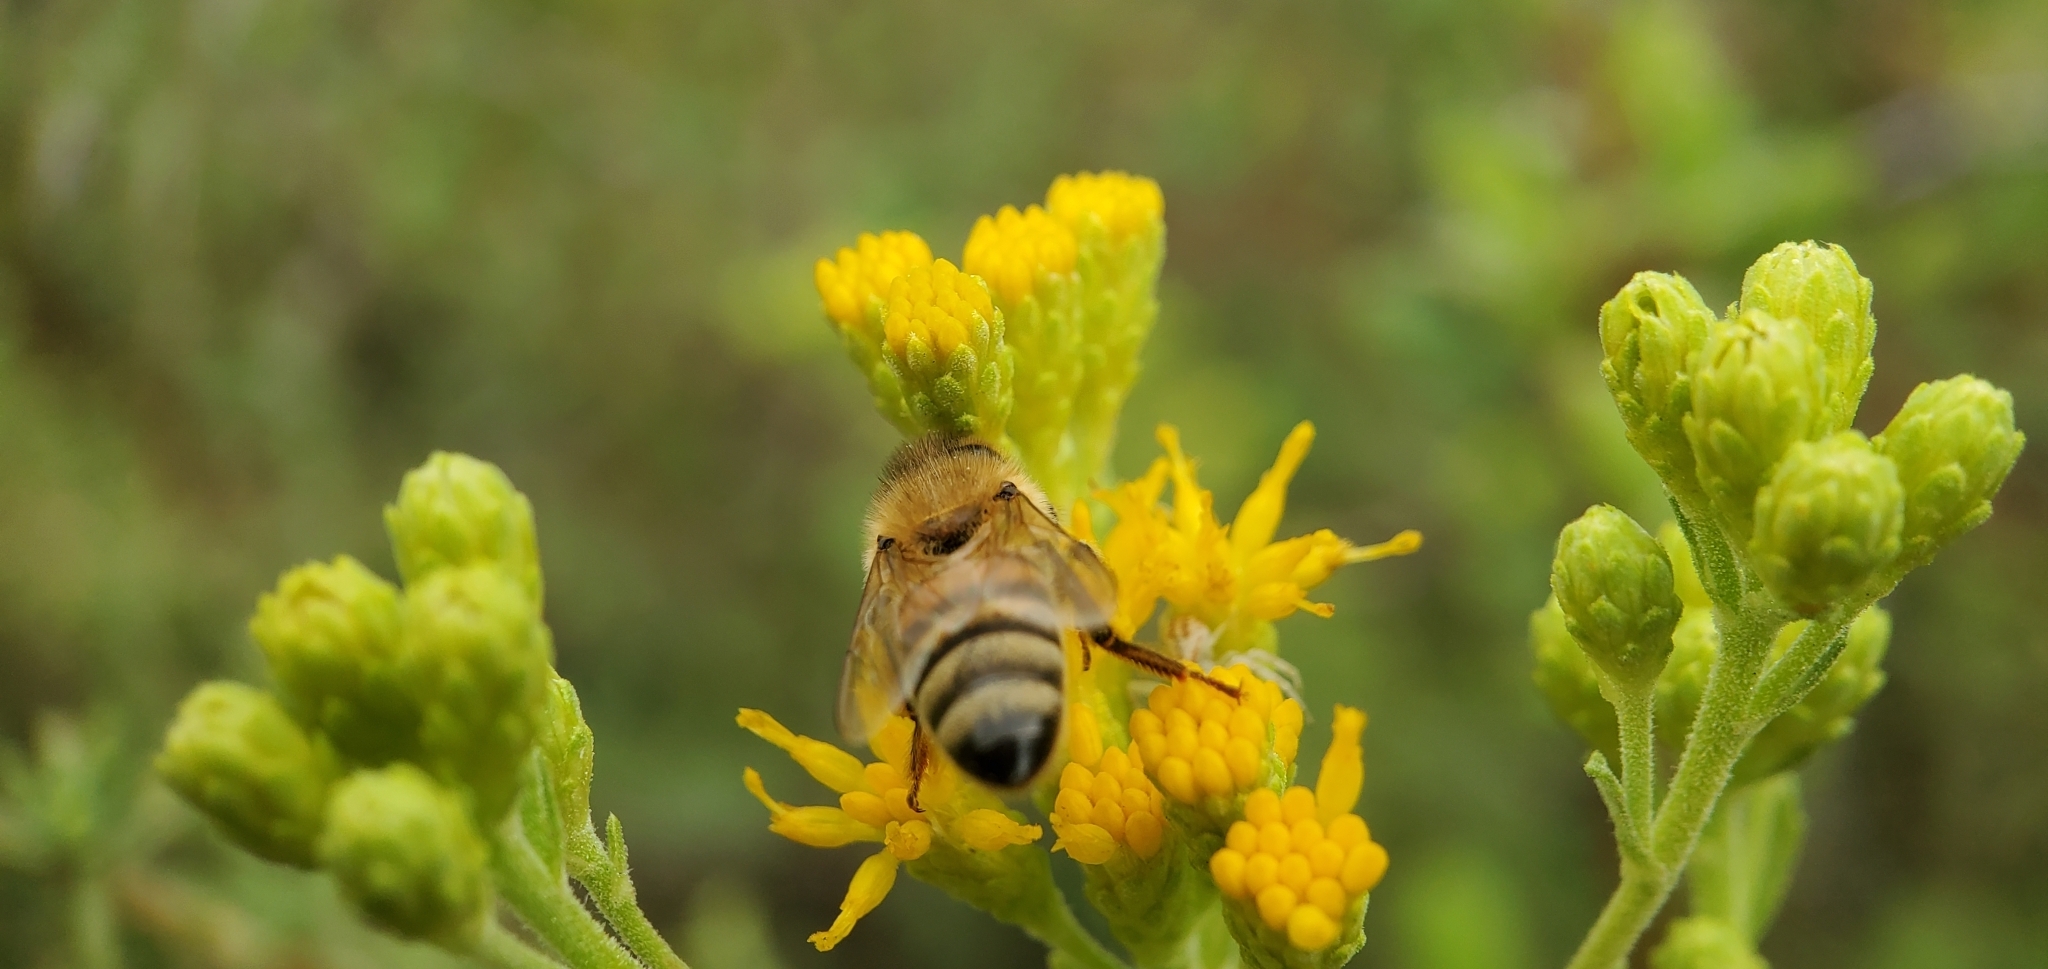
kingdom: Plantae
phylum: Tracheophyta
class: Magnoliopsida
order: Asterales
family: Asteraceae
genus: Isocoma
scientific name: Isocoma menziesii
